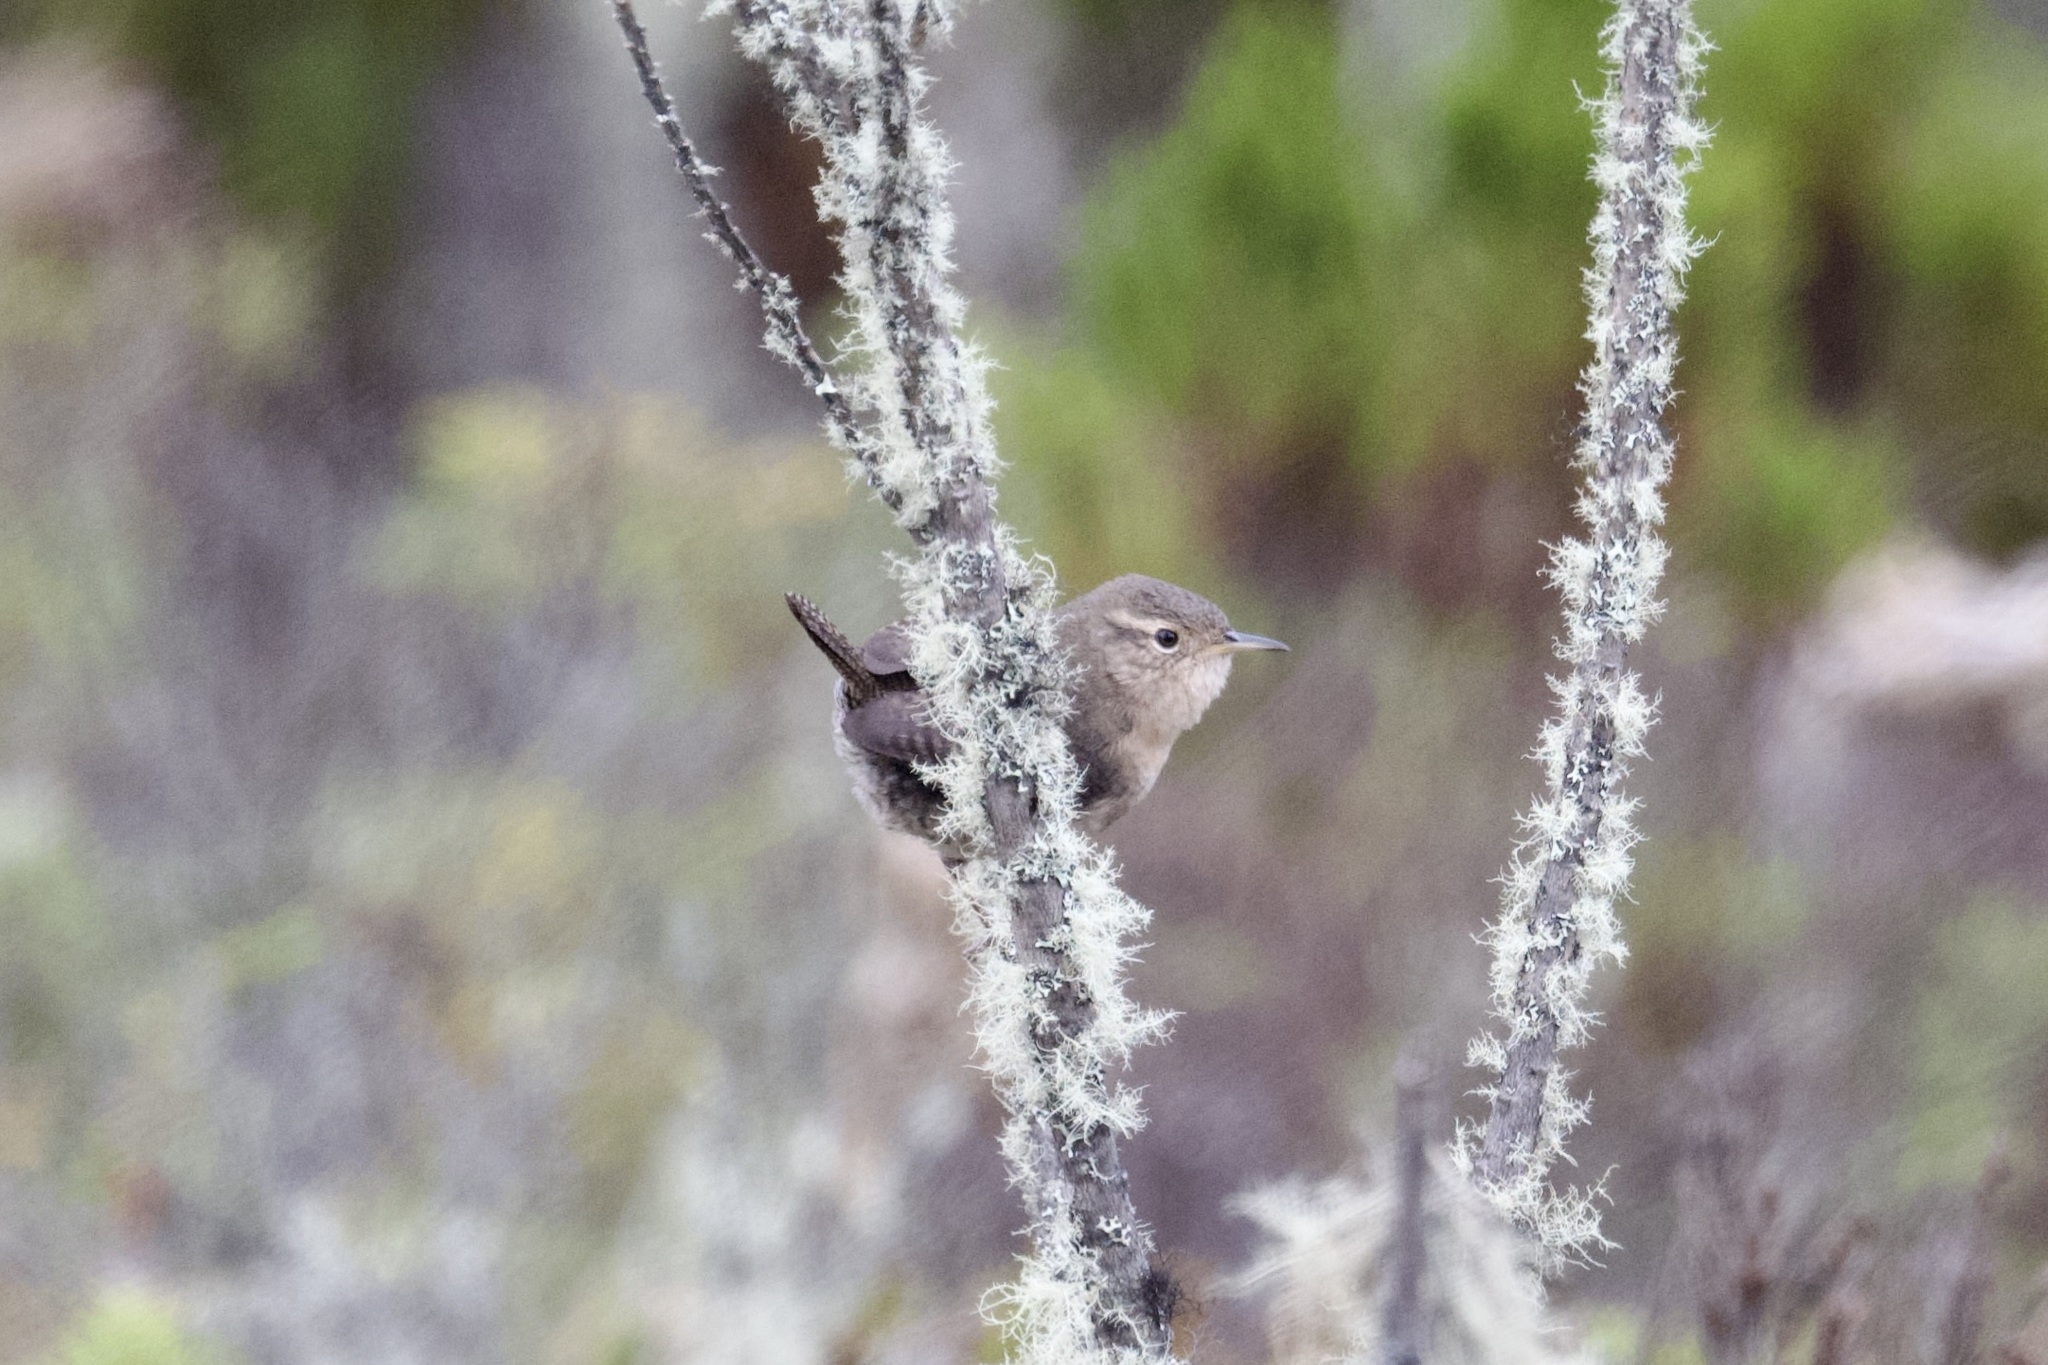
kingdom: Animalia
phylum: Chordata
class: Aves
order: Passeriformes
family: Troglodytidae
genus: Troglodytes
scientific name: Troglodytes aedon
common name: House wren
